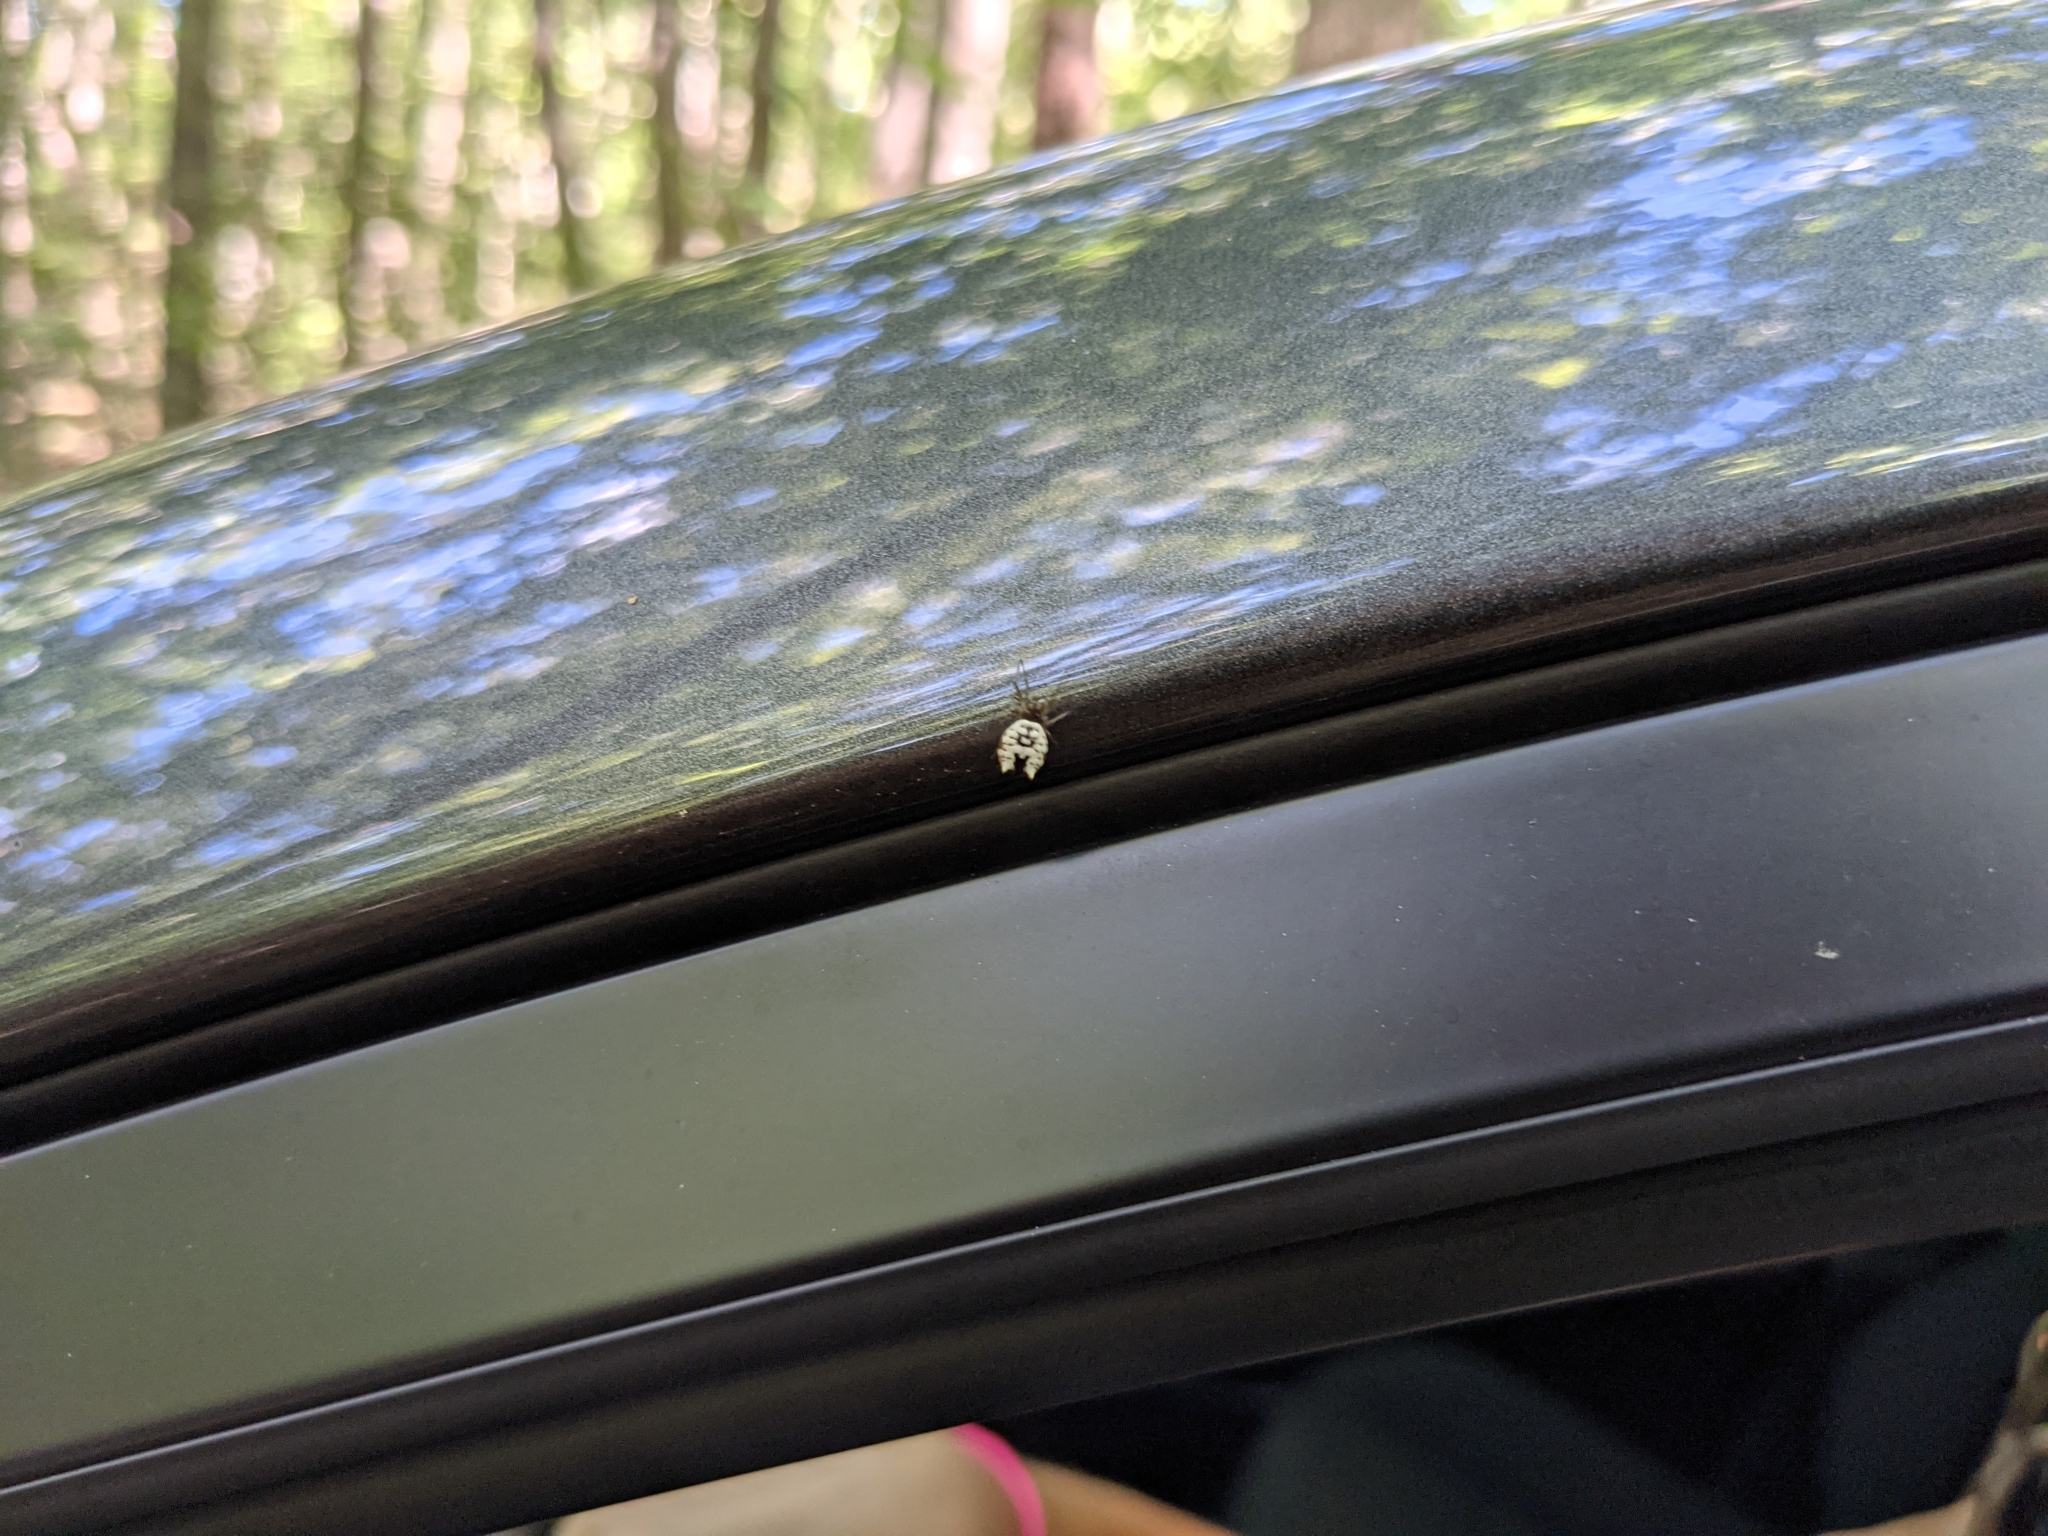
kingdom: Animalia
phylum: Arthropoda
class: Arachnida
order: Araneae
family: Araneidae
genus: Micrathena
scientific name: Micrathena mitrata
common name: Orb weavers
